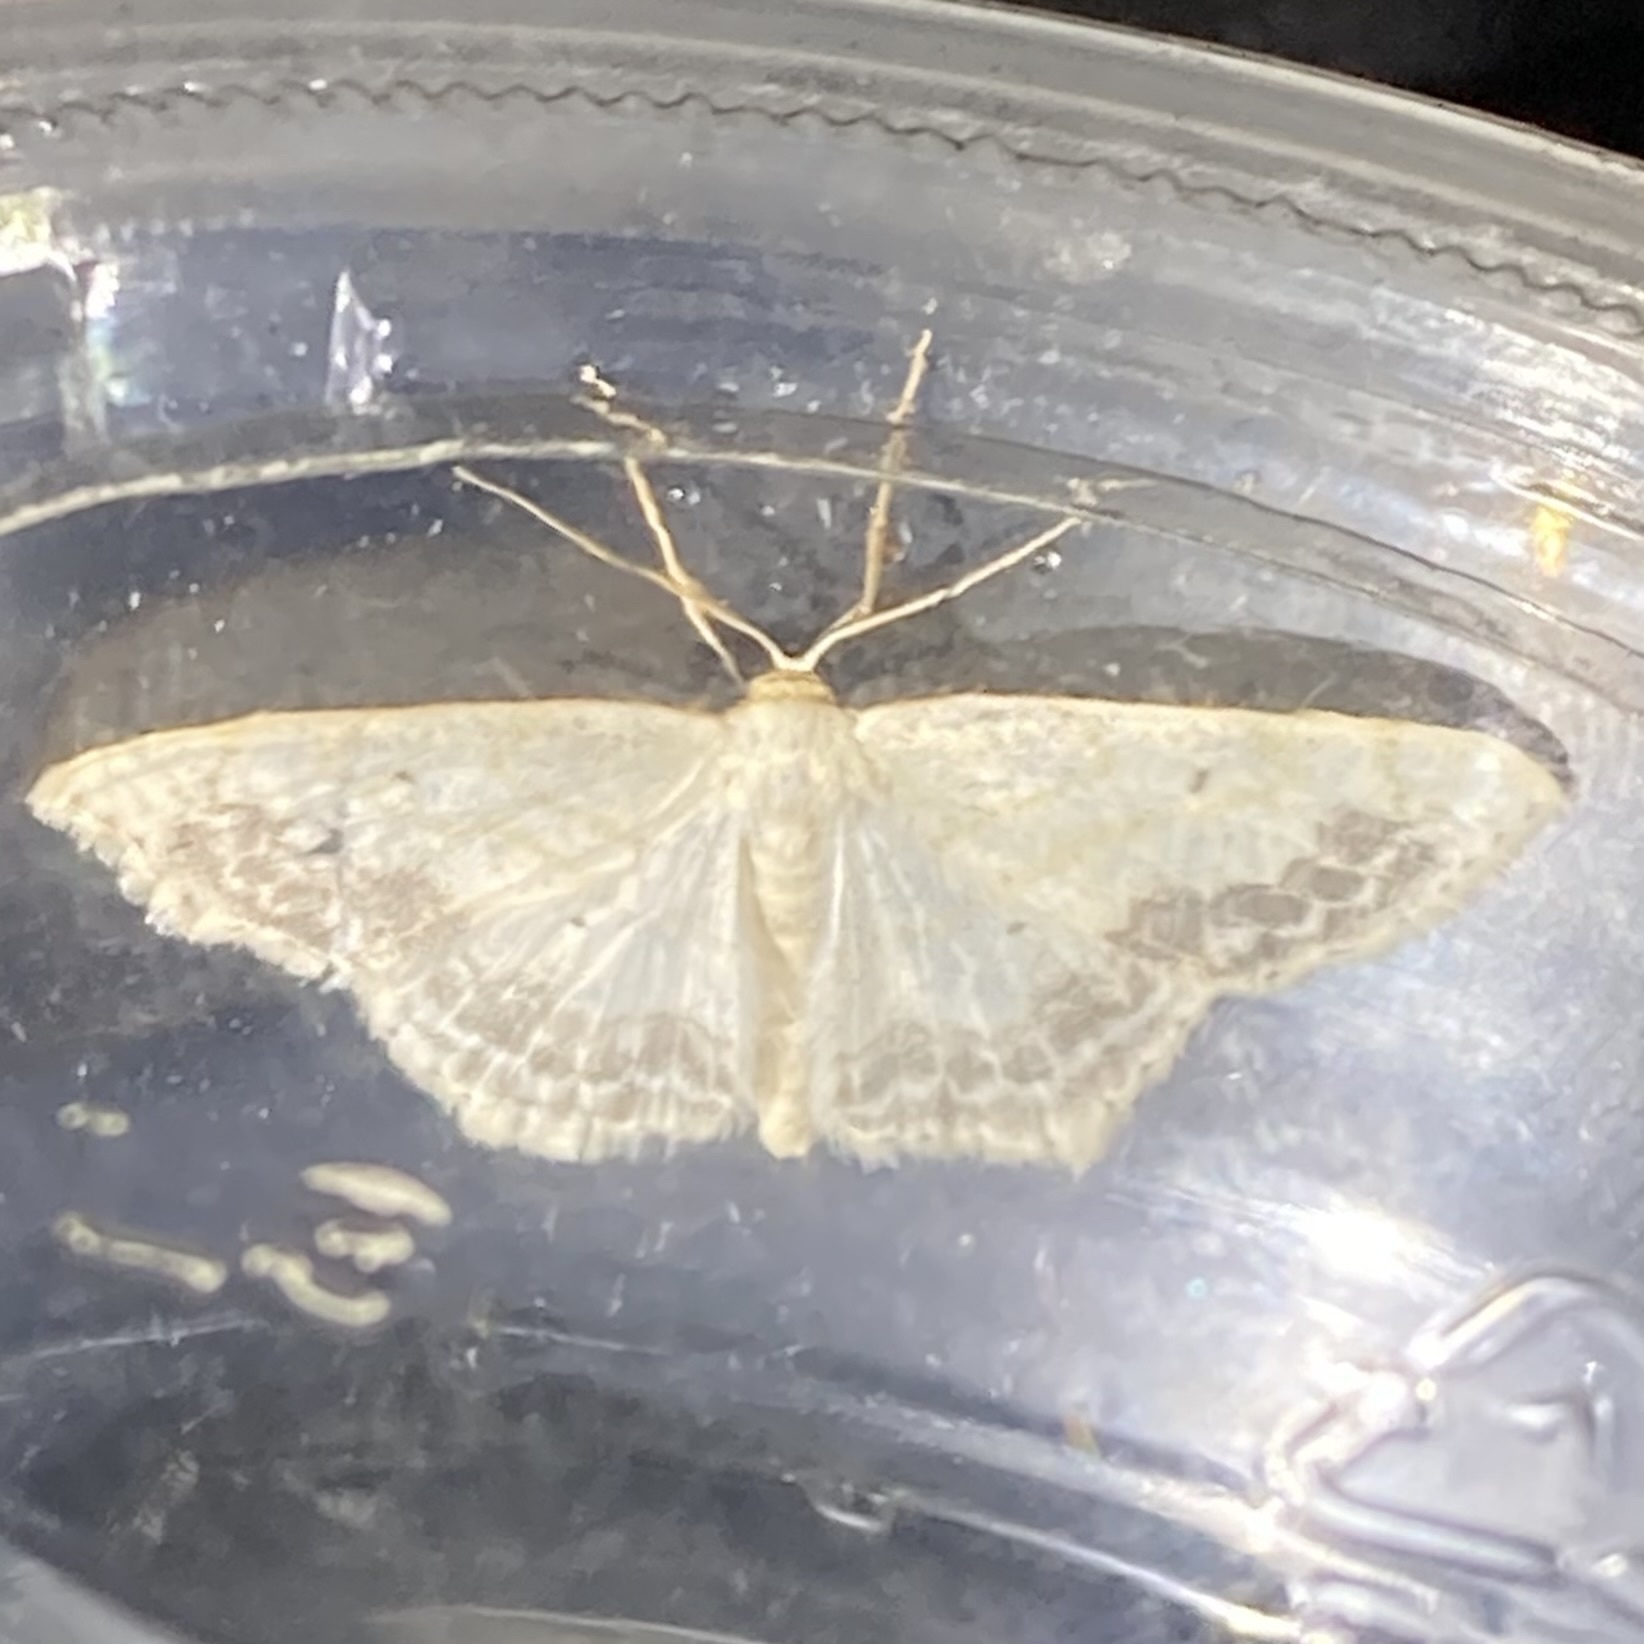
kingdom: Animalia
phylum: Arthropoda
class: Insecta
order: Lepidoptera
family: Geometridae
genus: Scopula
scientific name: Scopula limboundata
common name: Large lace border
